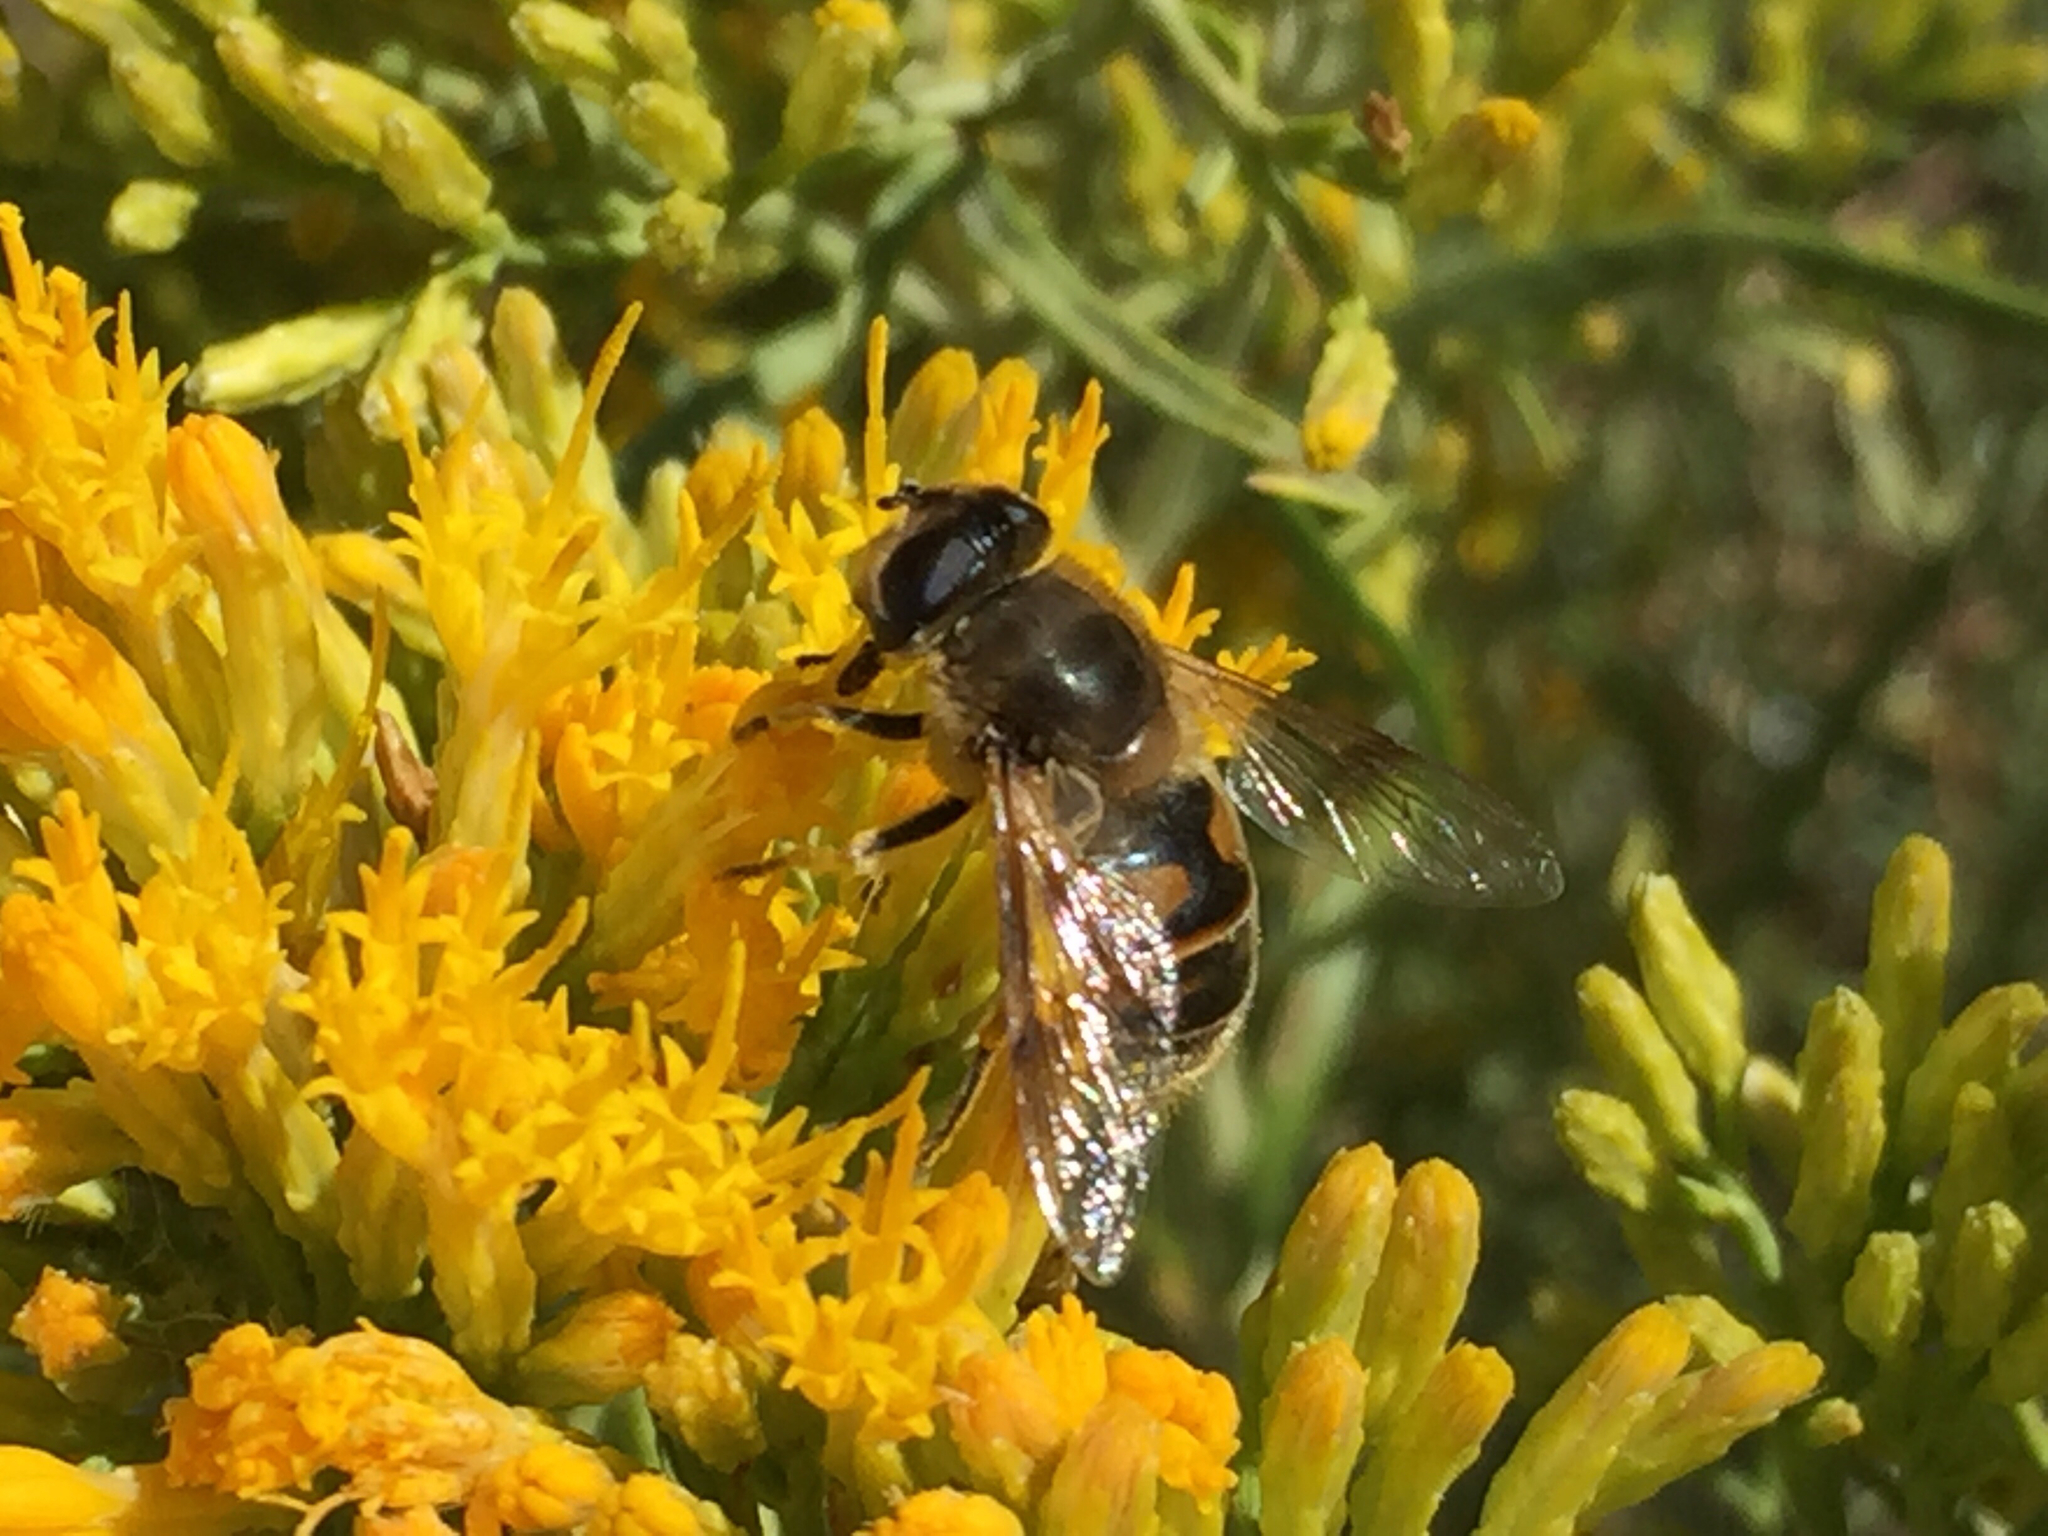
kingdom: Animalia
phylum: Arthropoda
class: Insecta
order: Diptera
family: Syrphidae
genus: Eristalis
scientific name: Eristalis tenax
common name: Drone fly
